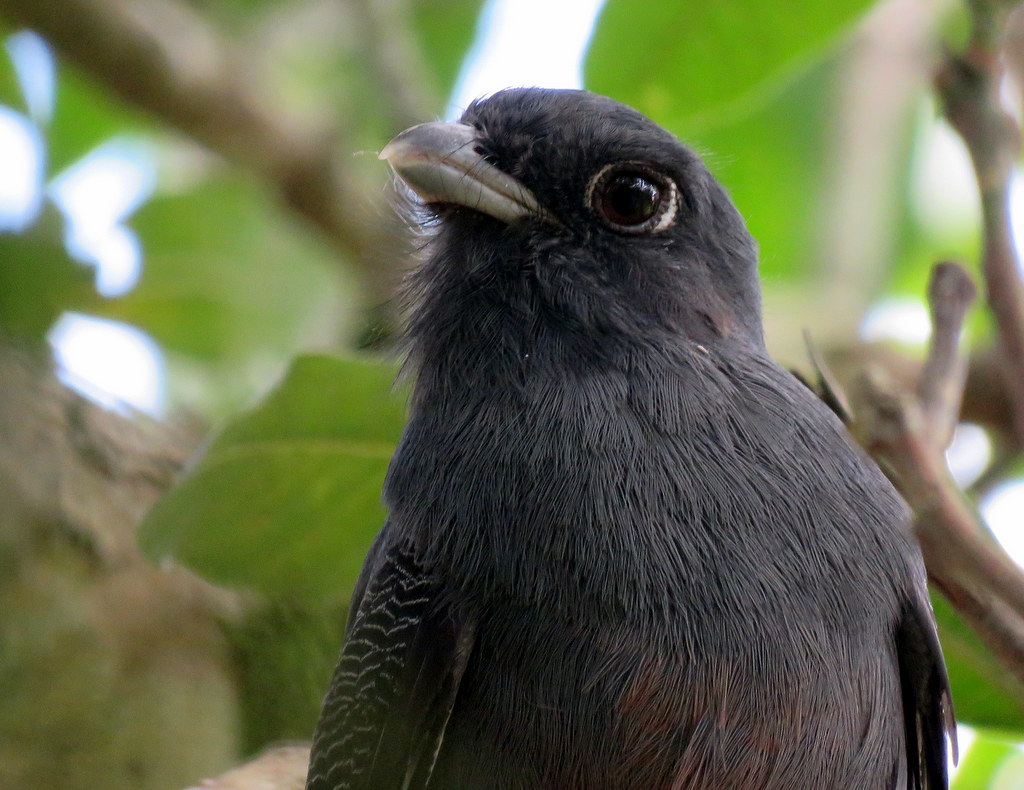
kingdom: Animalia
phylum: Chordata
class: Aves
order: Trogoniformes
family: Trogonidae
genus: Trogon
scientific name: Trogon surrucura
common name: Surucua trogon
